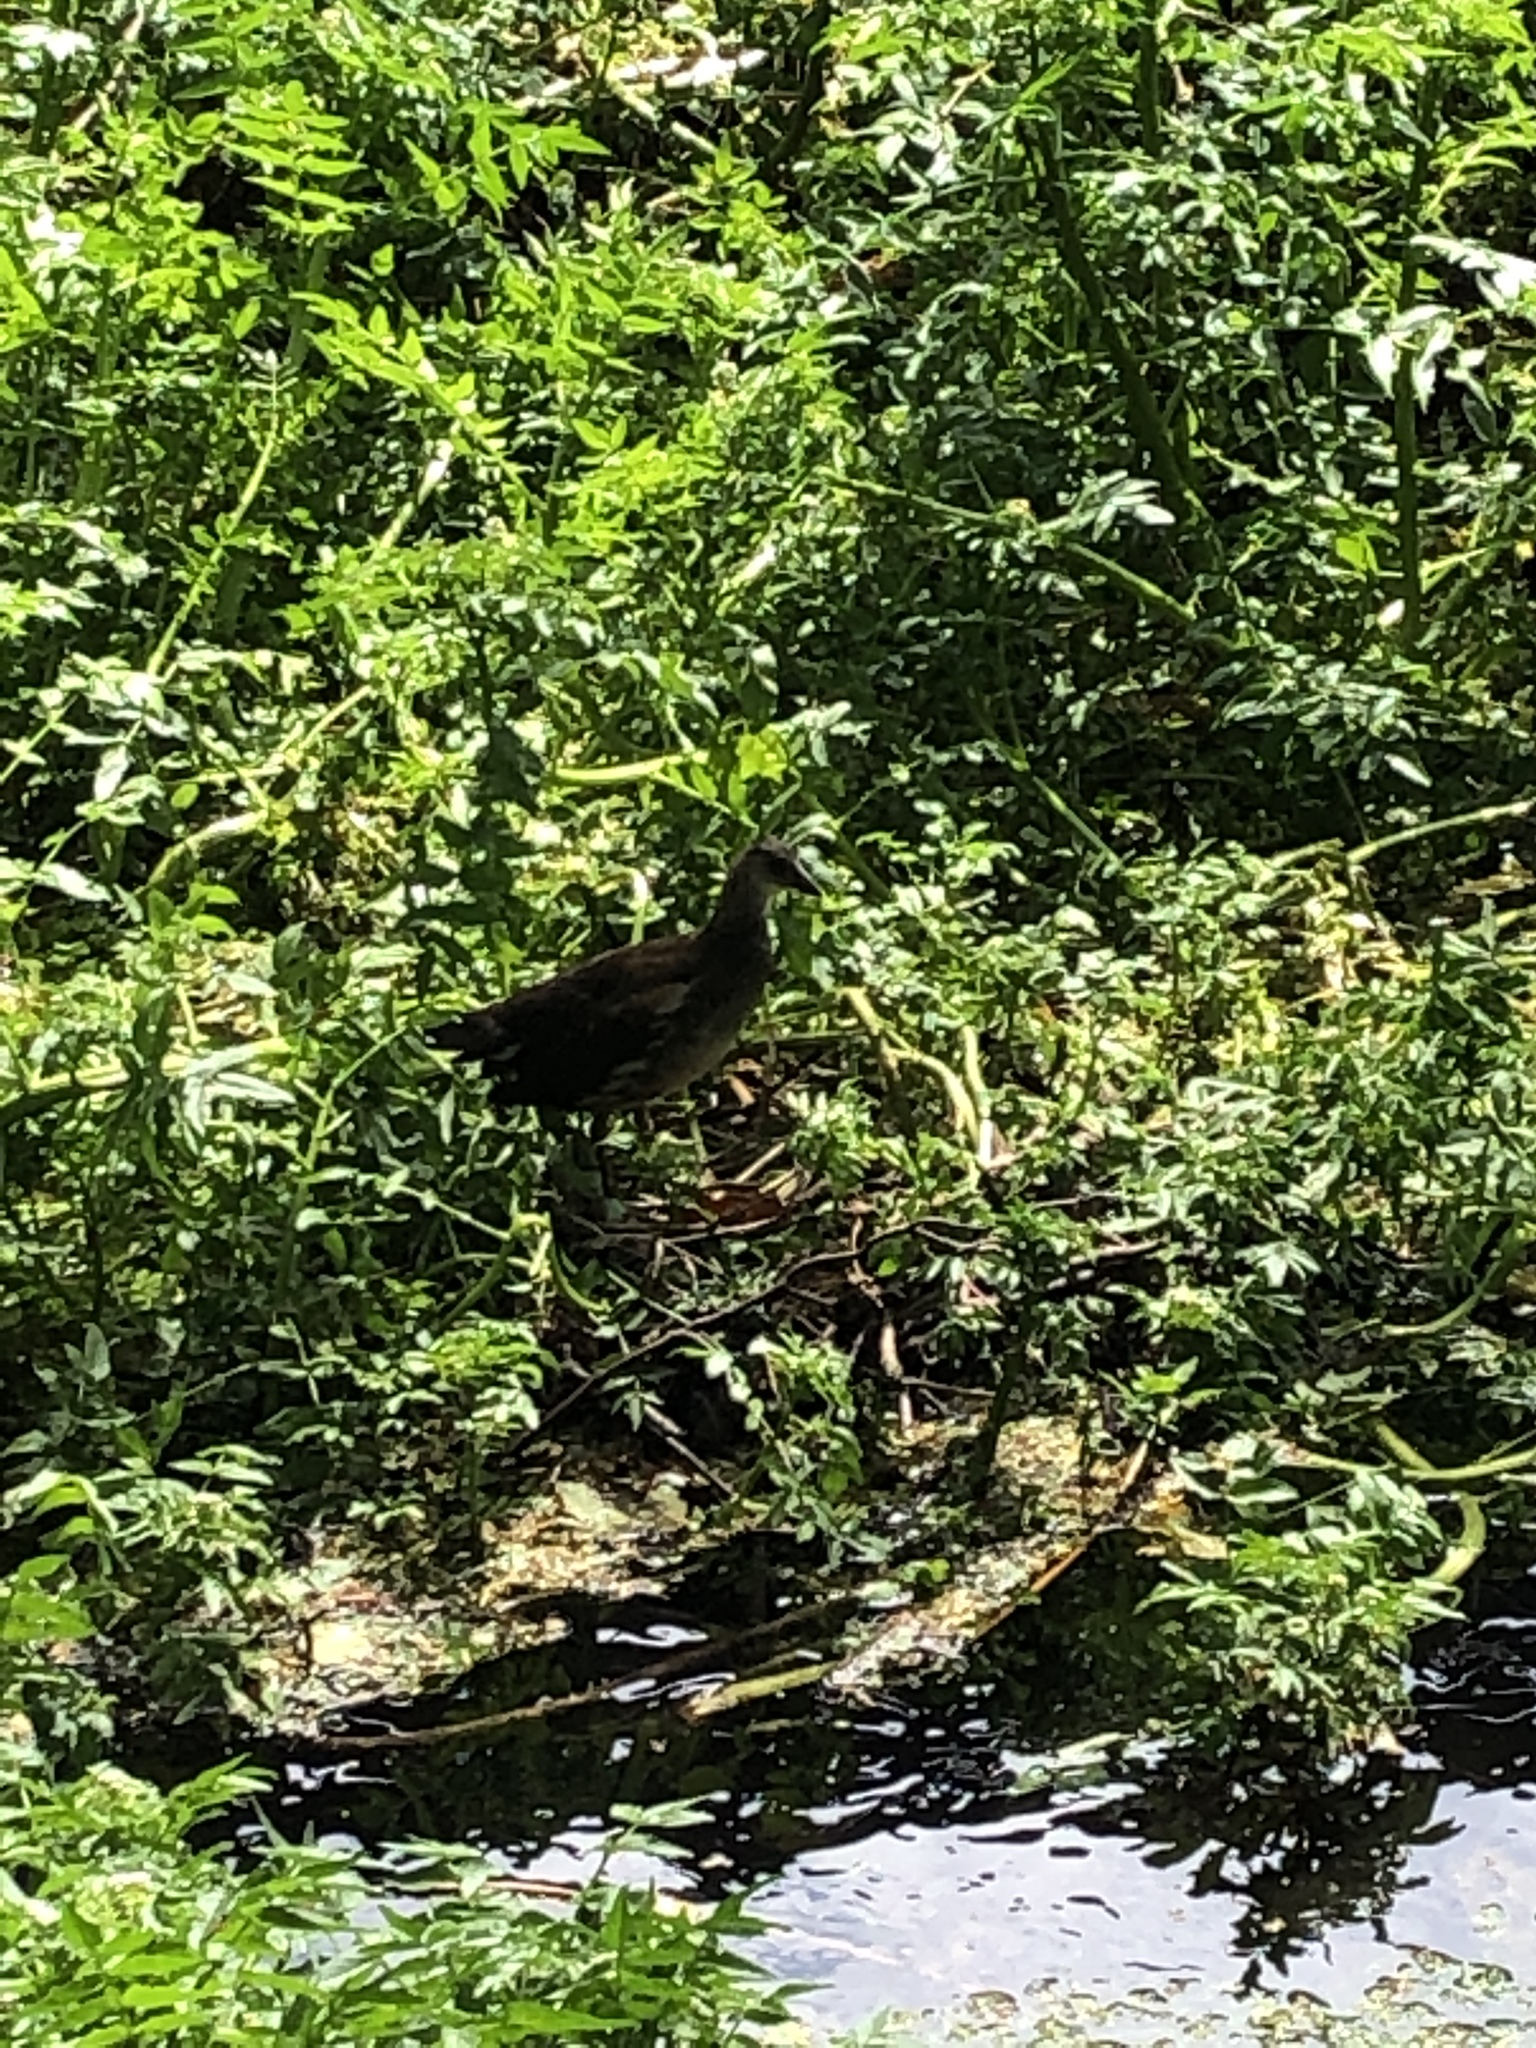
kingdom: Animalia
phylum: Chordata
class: Aves
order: Gruiformes
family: Rallidae
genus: Gallinula
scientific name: Gallinula chloropus
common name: Common moorhen
